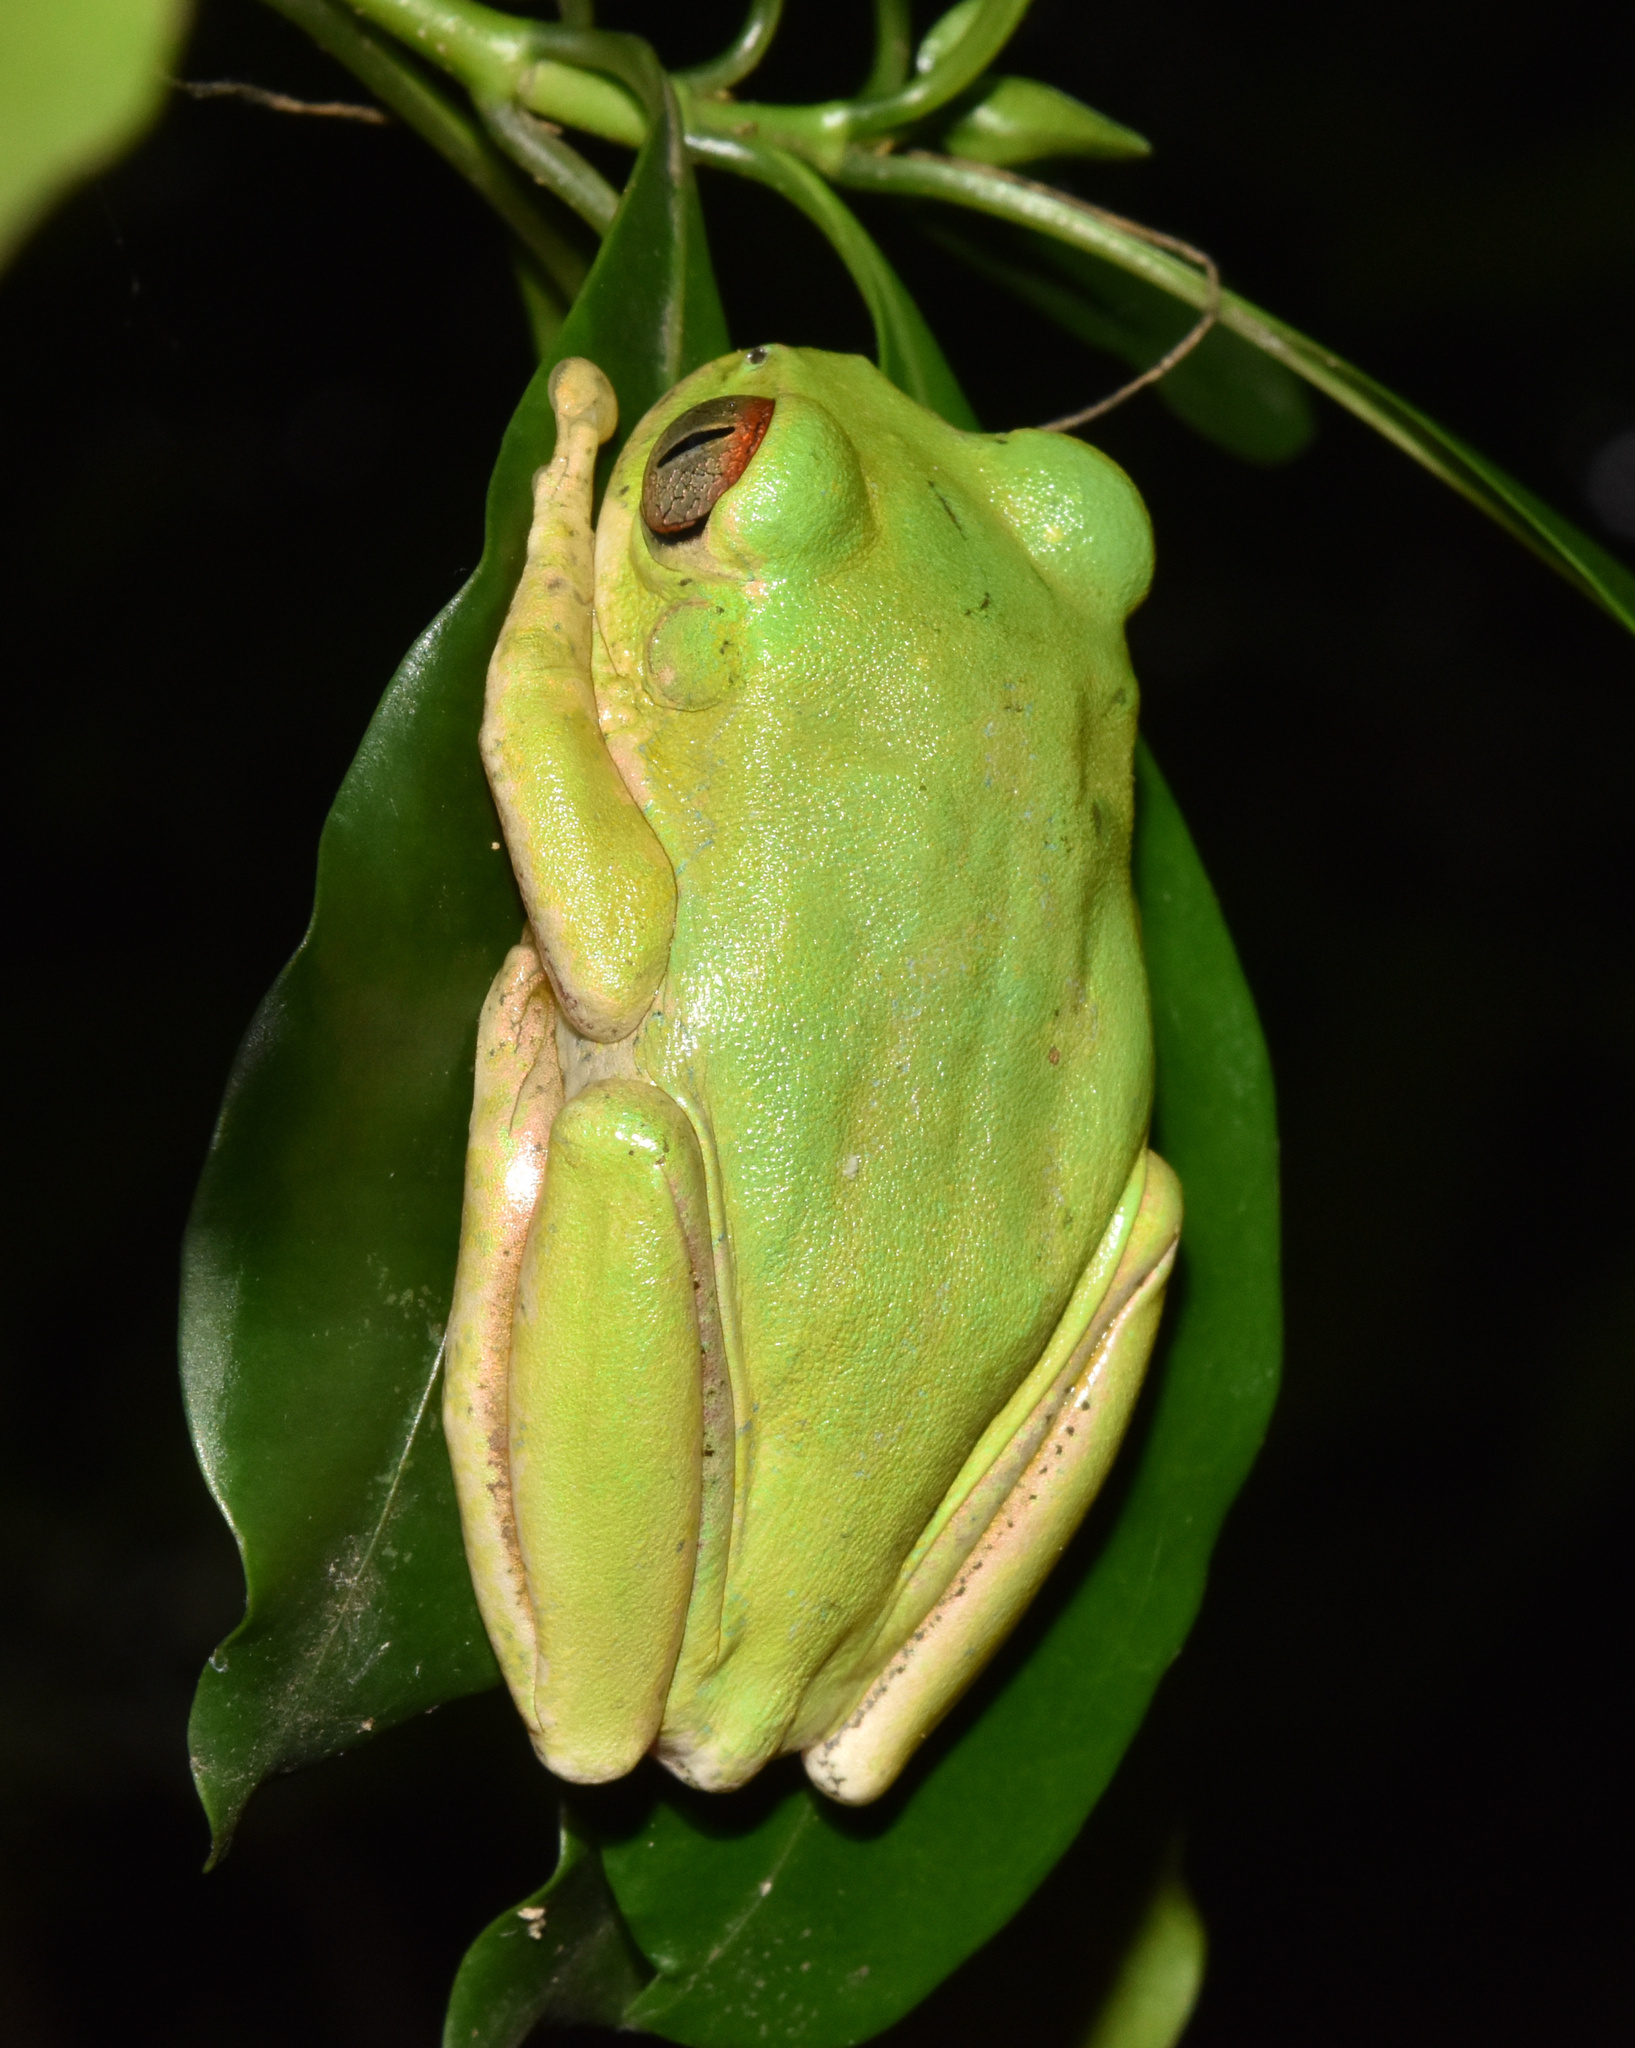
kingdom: Animalia
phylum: Chordata
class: Amphibia
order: Anura
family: Arthroleptidae
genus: Leptopelis
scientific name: Leptopelis natalensis
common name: Natal tree frog
